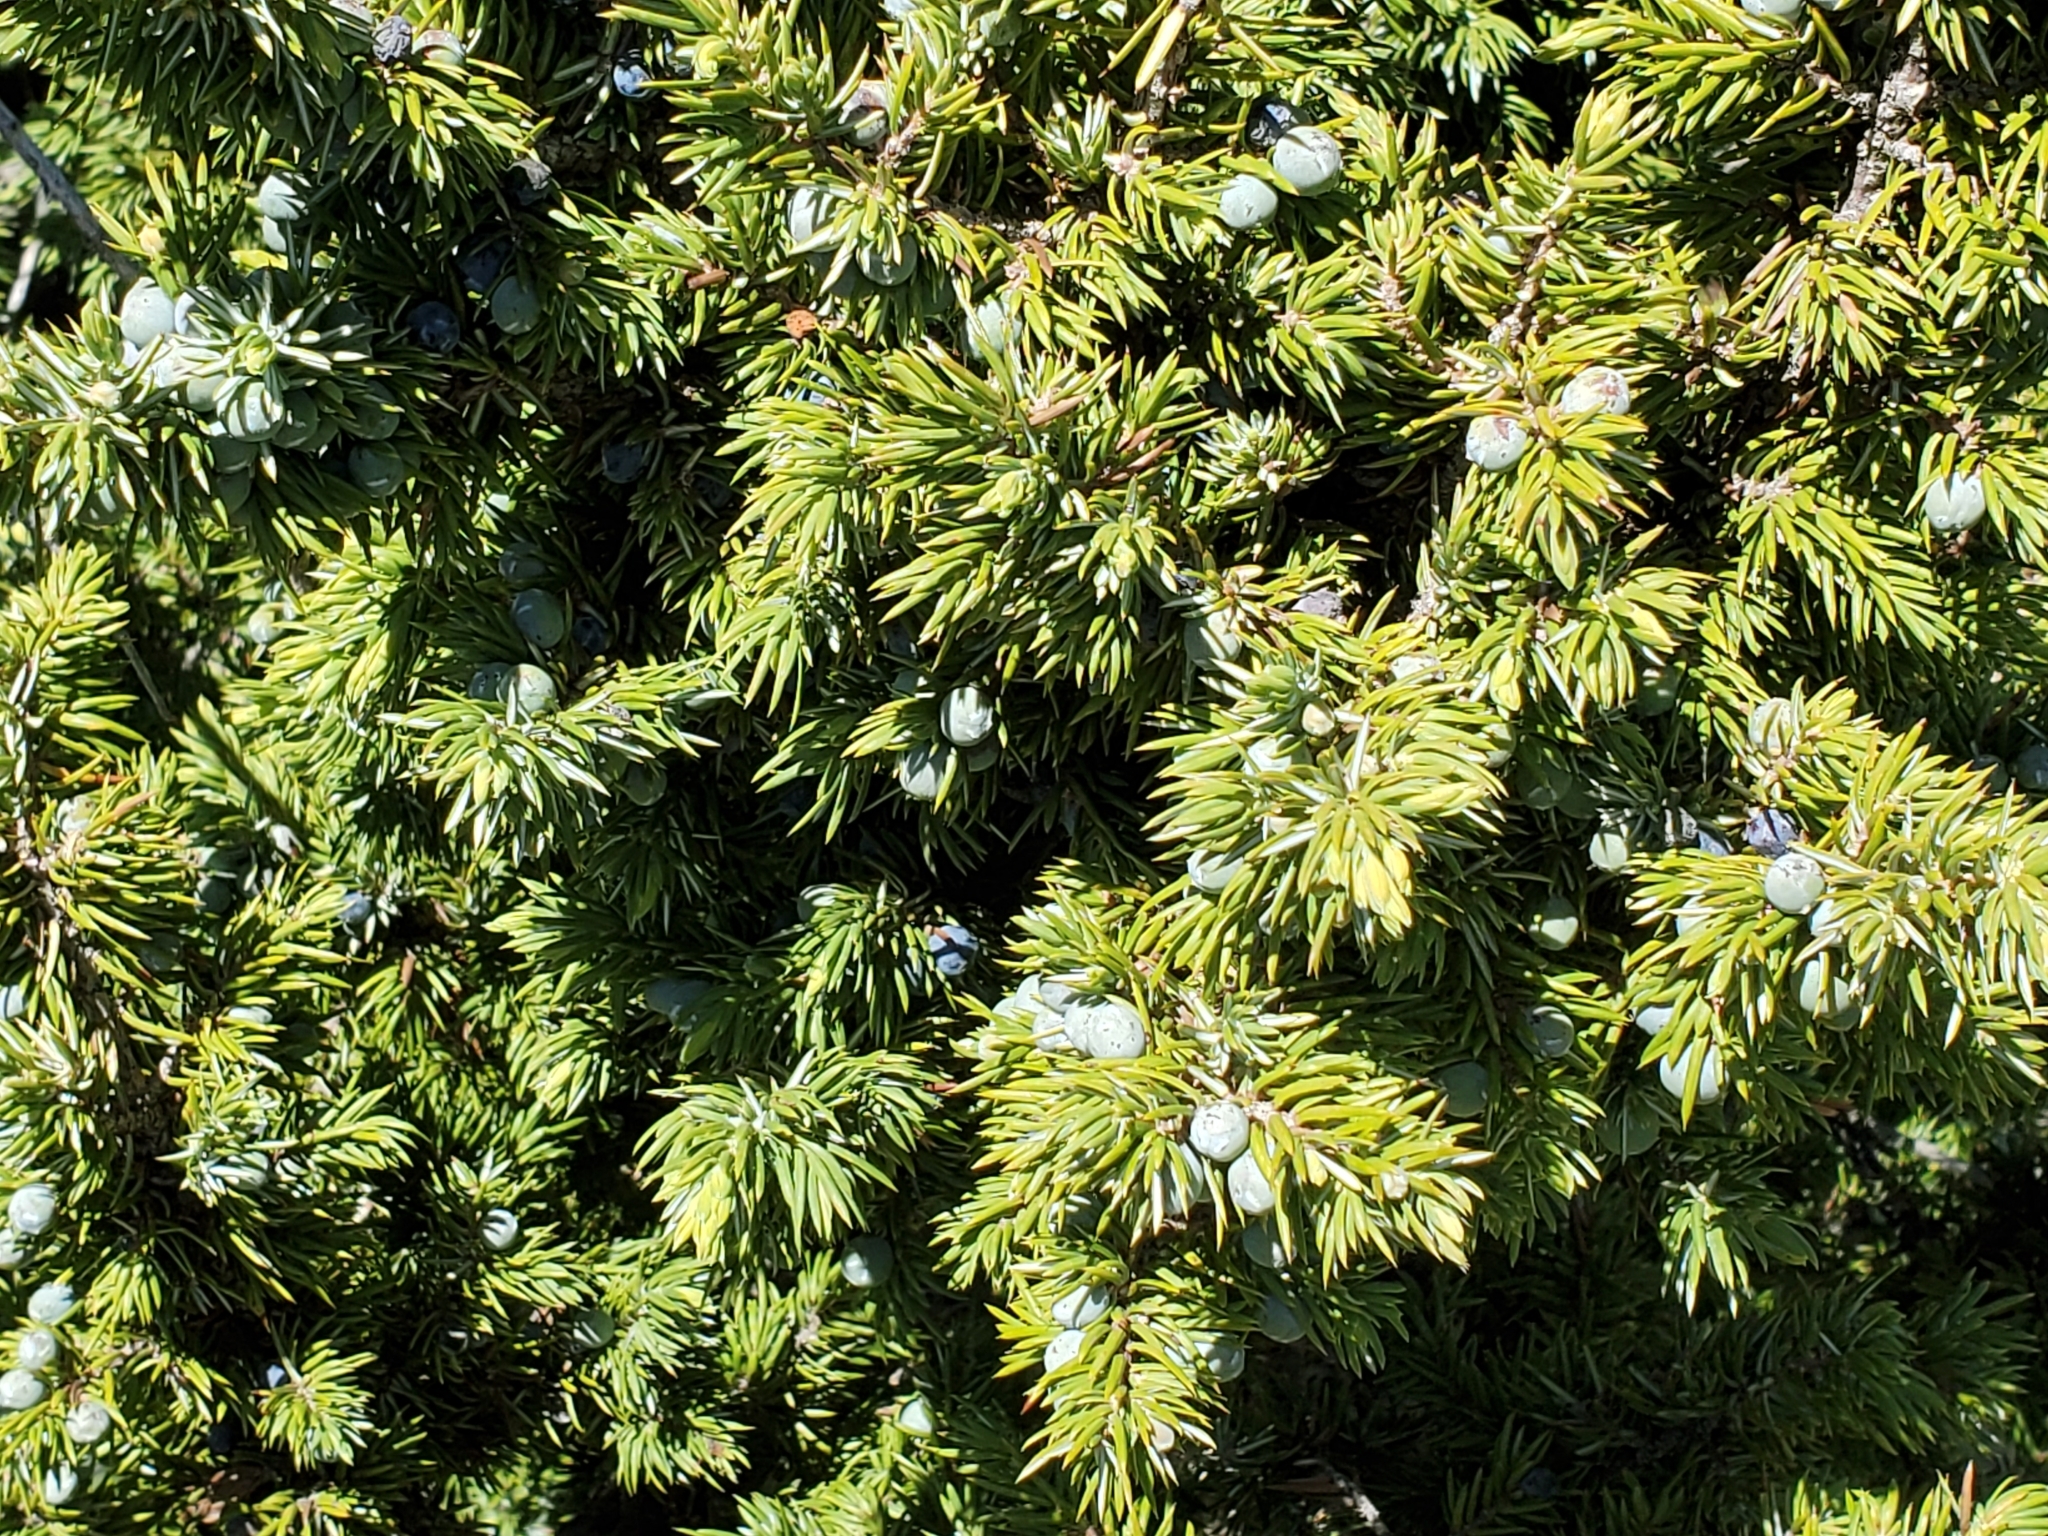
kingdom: Plantae
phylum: Tracheophyta
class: Pinopsida
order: Pinales
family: Cupressaceae
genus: Juniperus
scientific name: Juniperus communis
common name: Common juniper
